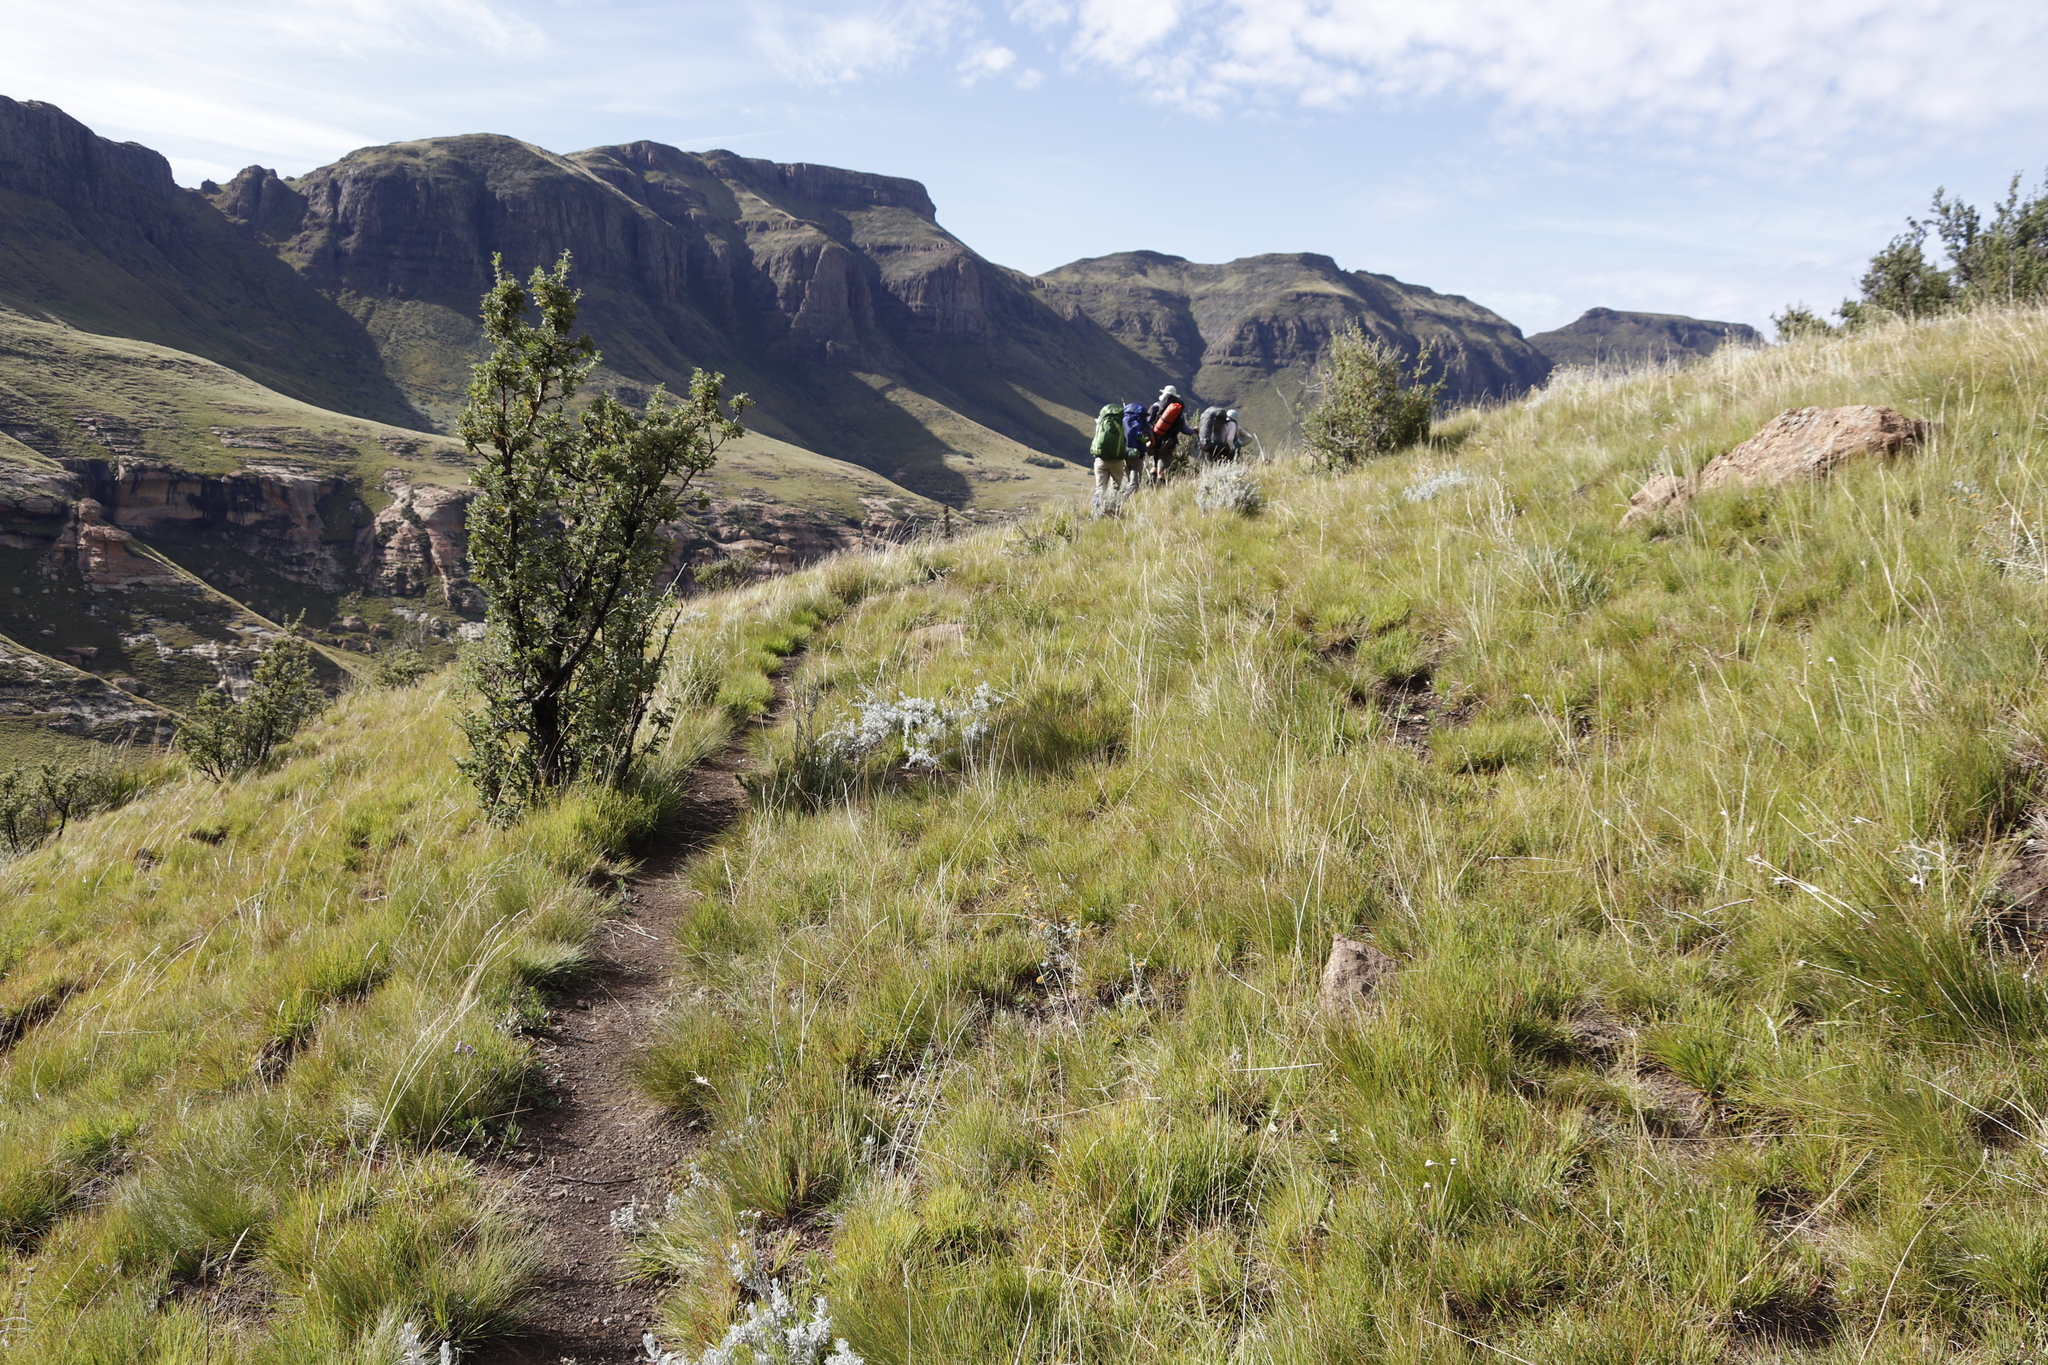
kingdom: Plantae
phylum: Tracheophyta
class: Magnoliopsida
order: Rosales
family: Rosaceae
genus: Leucosidea
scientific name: Leucosidea sericea
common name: Oldwood
